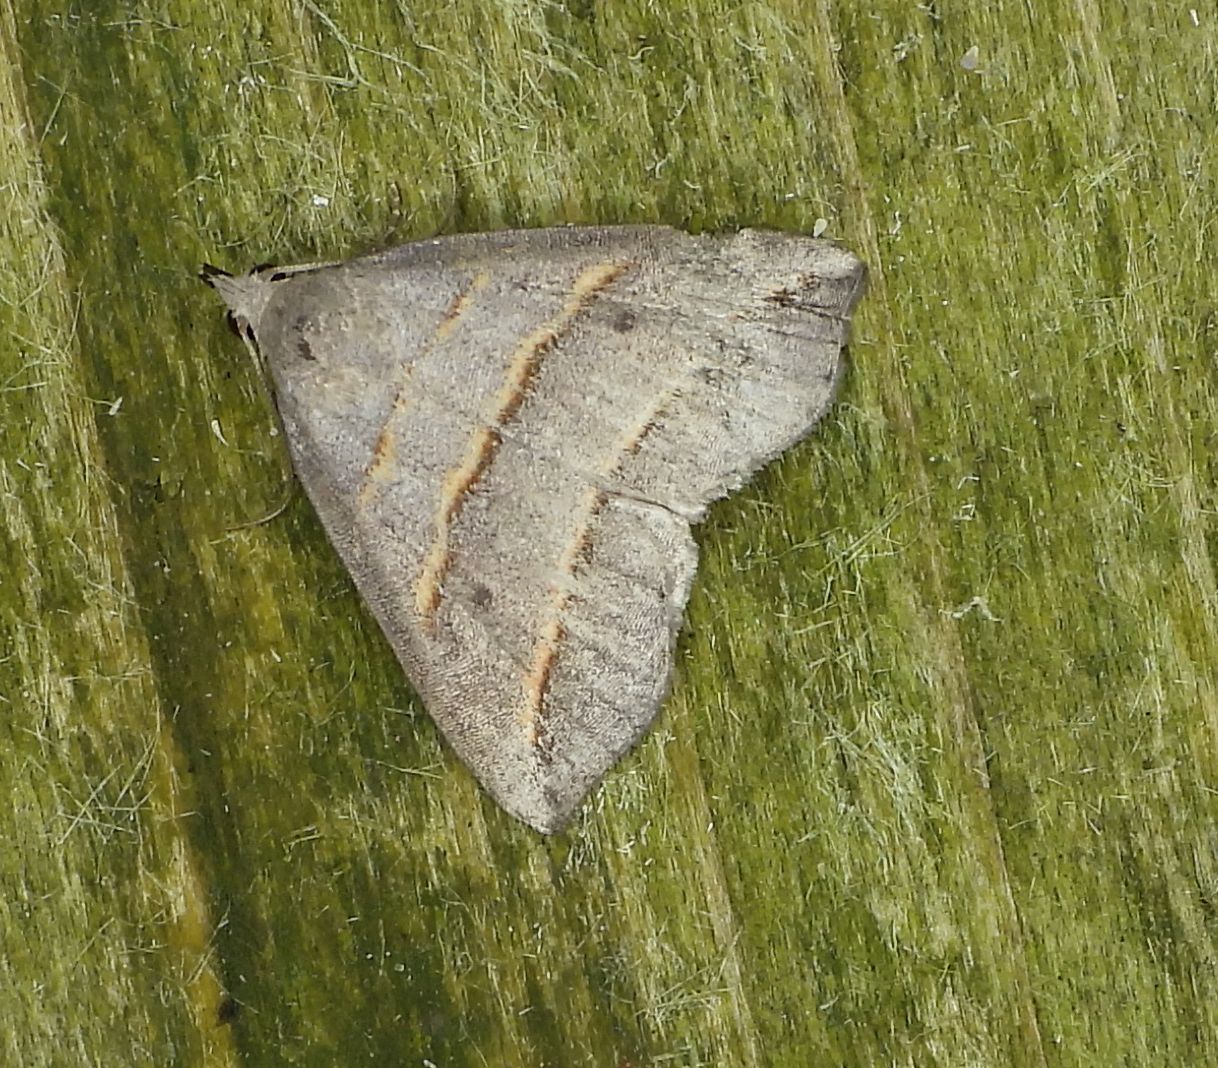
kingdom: Animalia
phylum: Arthropoda
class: Insecta
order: Lepidoptera
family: Erebidae
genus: Colobochyla
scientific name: Colobochyla interpuncta
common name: Yellow-lined owlet
